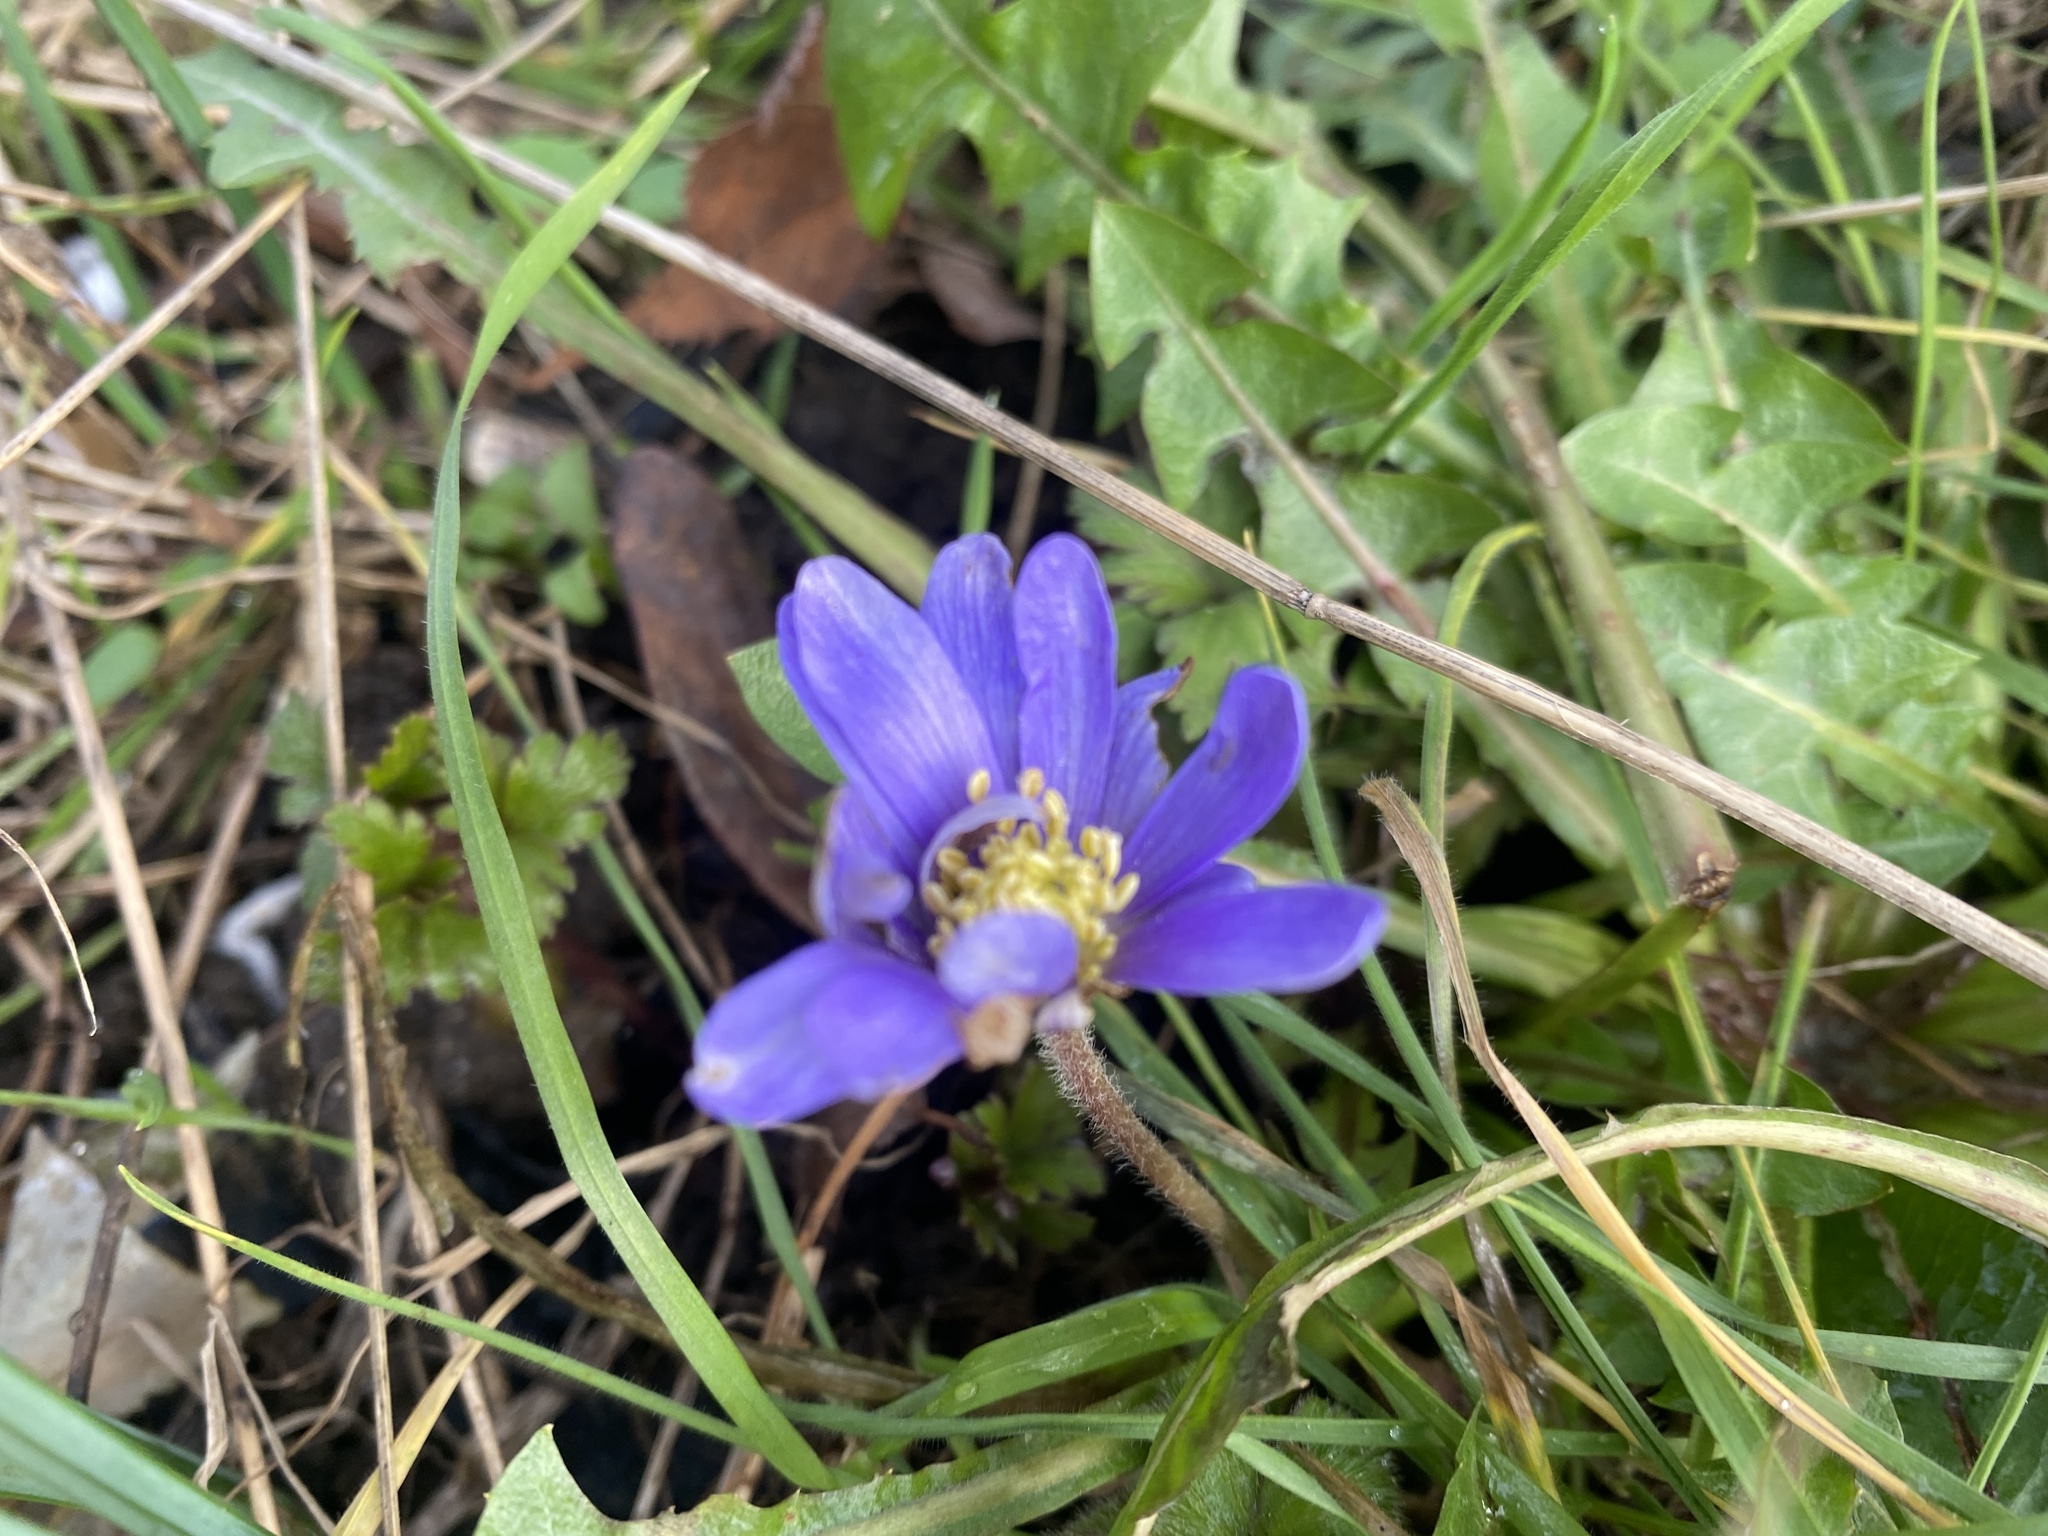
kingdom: Plantae
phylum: Tracheophyta
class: Magnoliopsida
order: Ranunculales
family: Ranunculaceae
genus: Anemone
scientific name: Anemone blanda
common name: Balkan anemone
